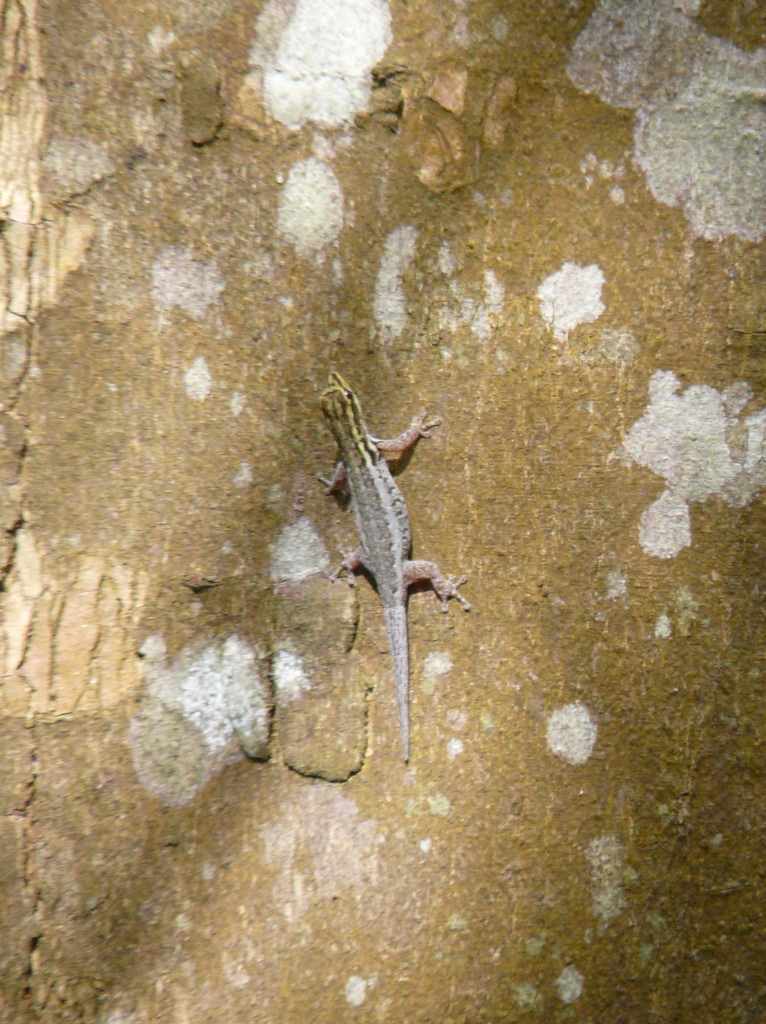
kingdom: Animalia
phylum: Chordata
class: Squamata
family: Gekkonidae
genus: Lygodactylus
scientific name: Lygodactylus picturatus
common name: Painted dwarf gecko
